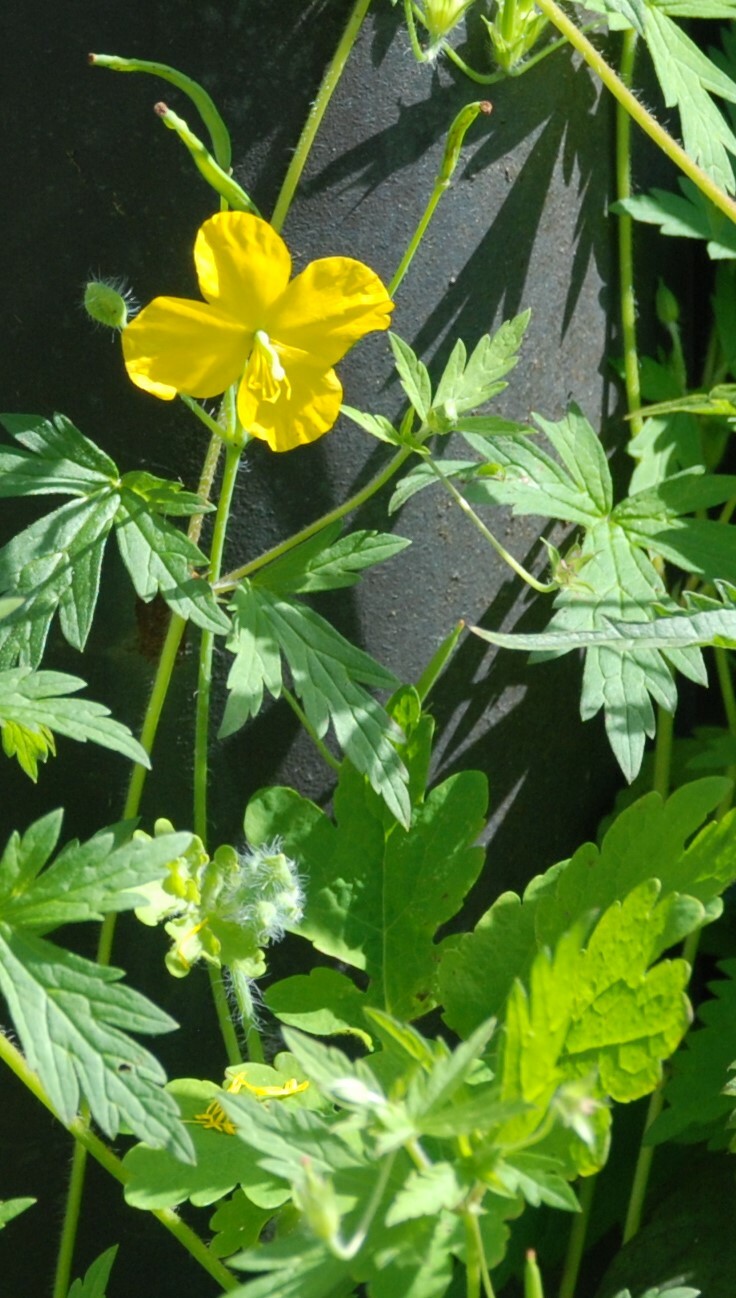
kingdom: Plantae
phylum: Tracheophyta
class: Magnoliopsida
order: Ranunculales
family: Papaveraceae
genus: Chelidonium
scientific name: Chelidonium majus
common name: Greater celandine
